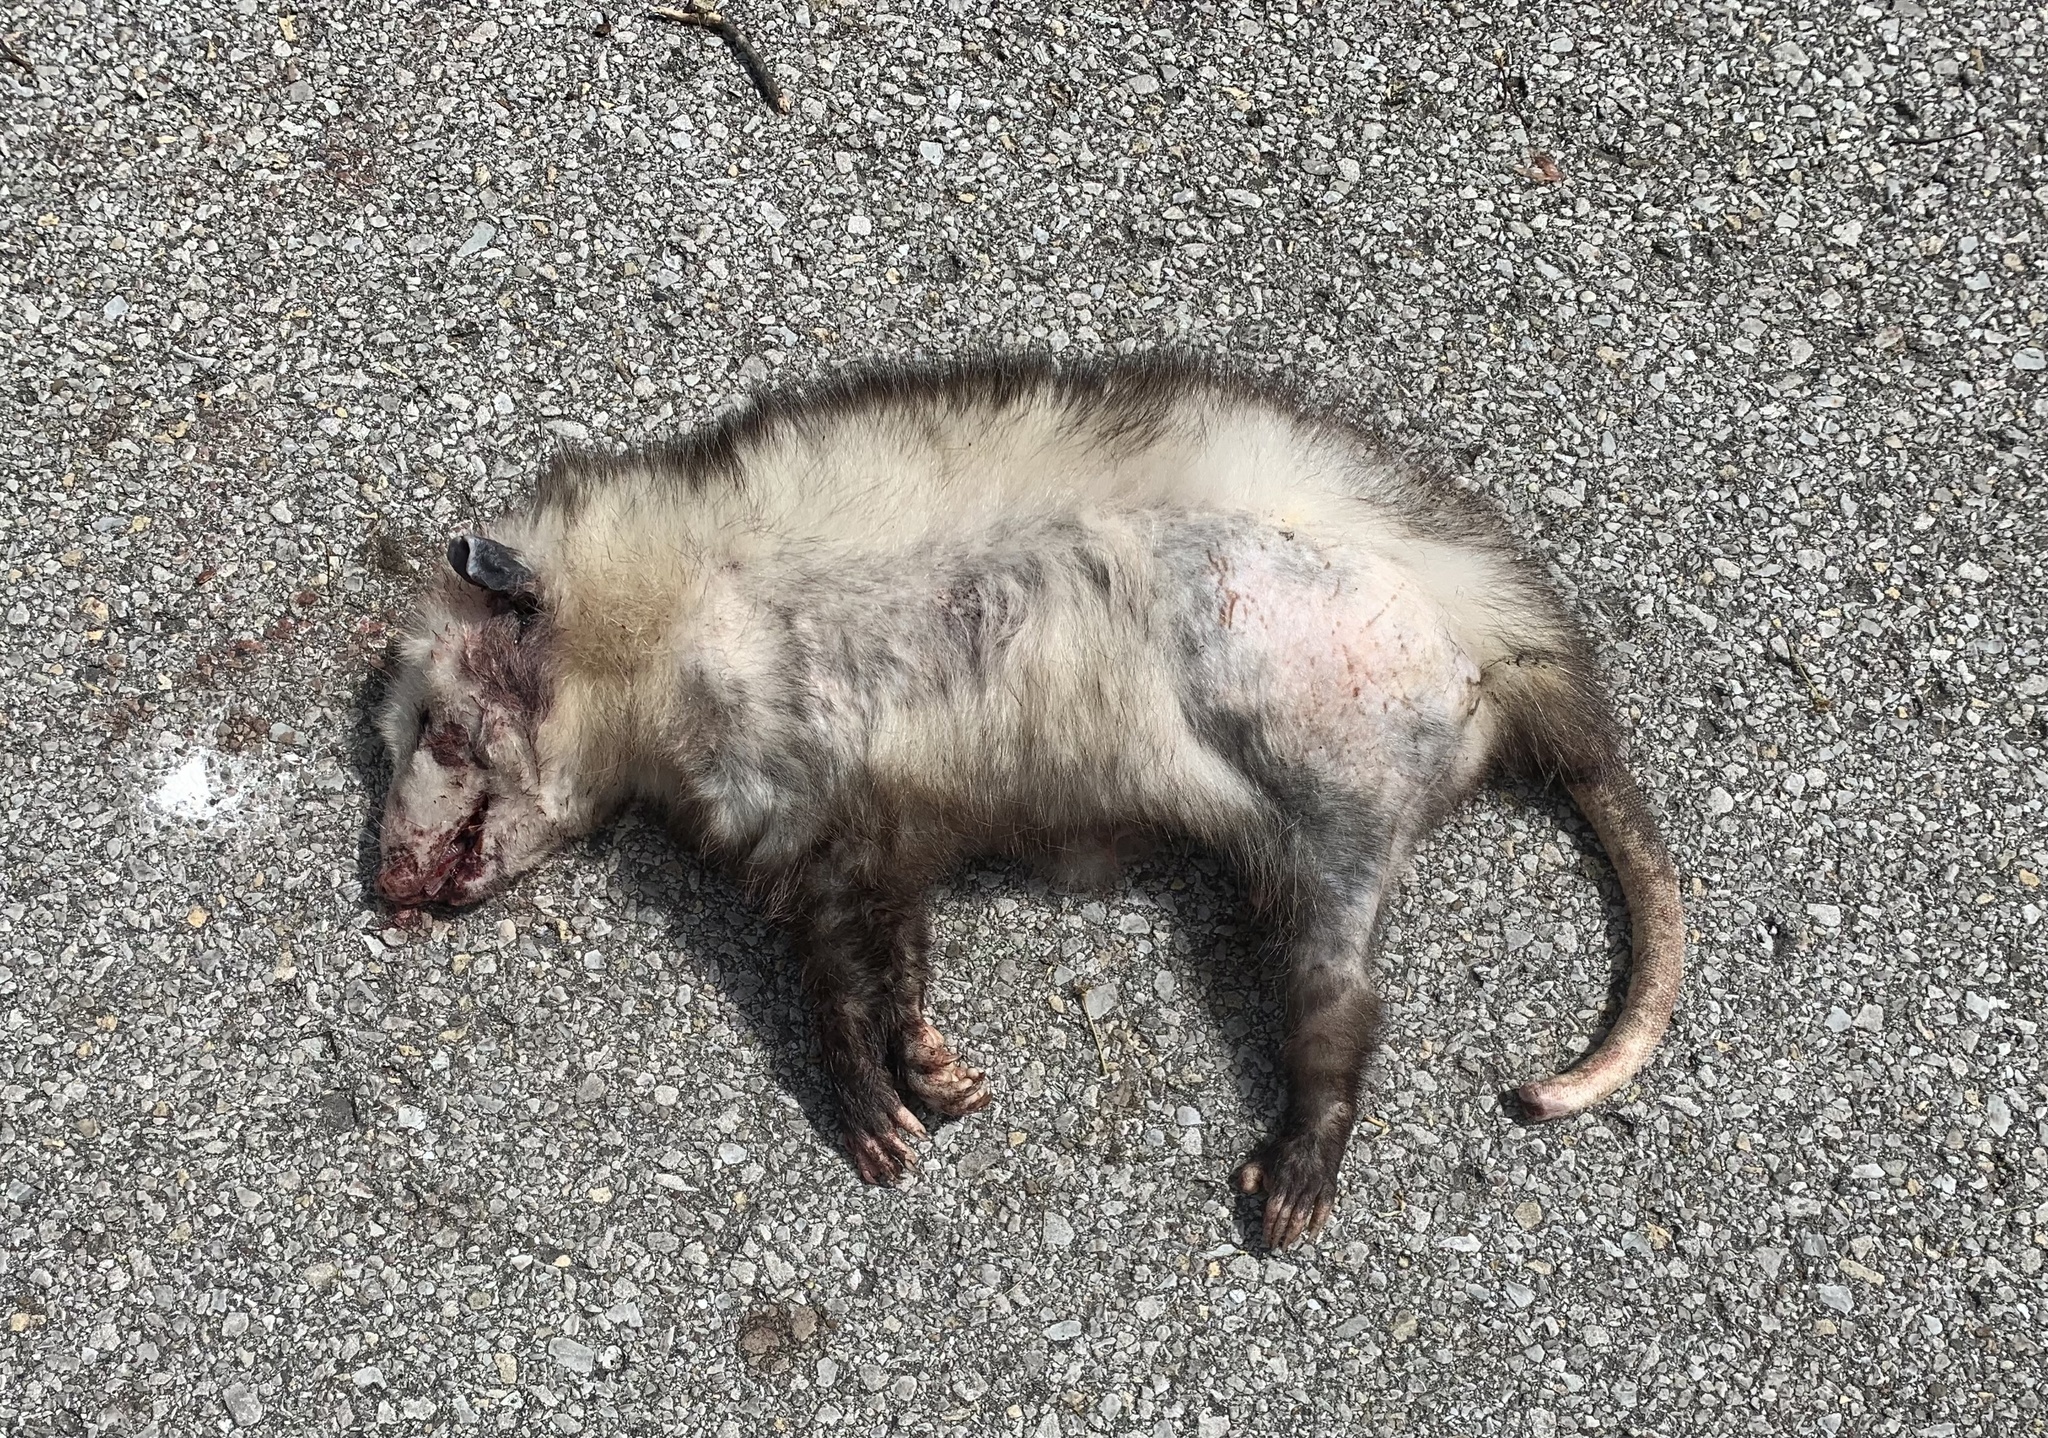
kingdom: Animalia
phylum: Chordata
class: Mammalia
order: Didelphimorphia
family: Didelphidae
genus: Didelphis
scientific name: Didelphis virginiana
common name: Virginia opossum
